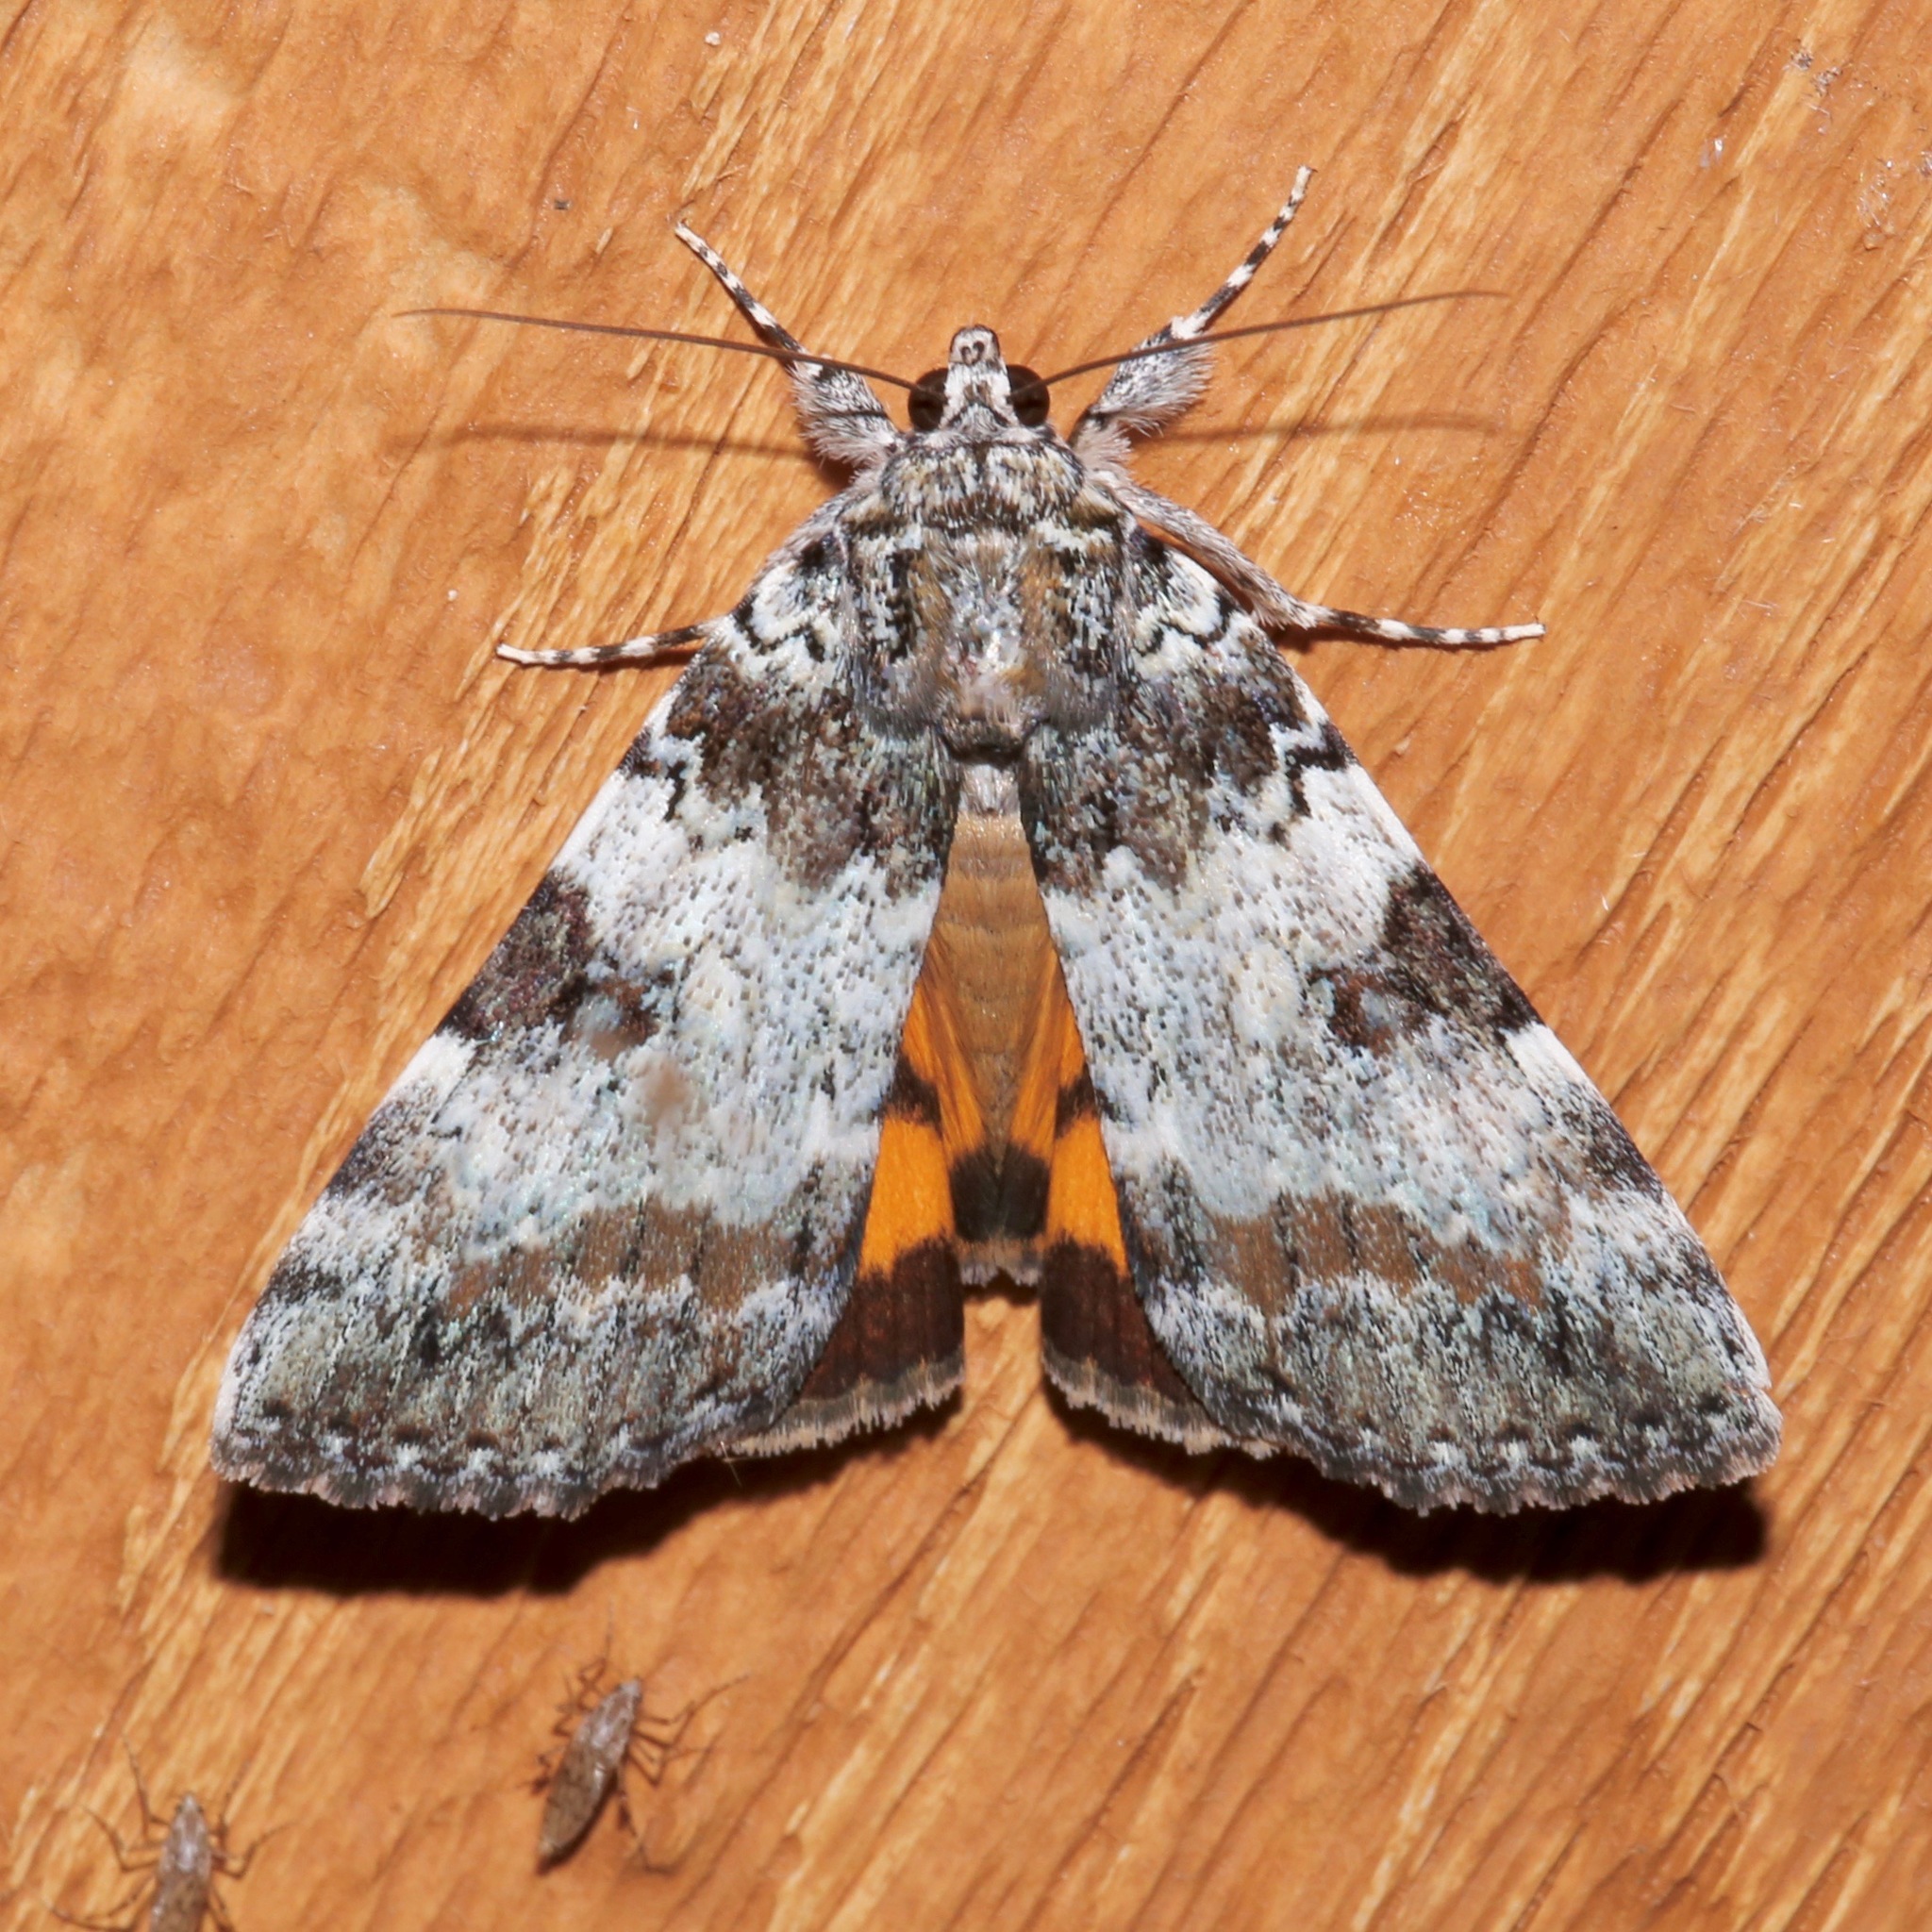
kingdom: Animalia
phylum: Arthropoda
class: Insecta
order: Lepidoptera
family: Erebidae
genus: Catocala
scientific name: Catocala connubialis
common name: Connubial underwing
